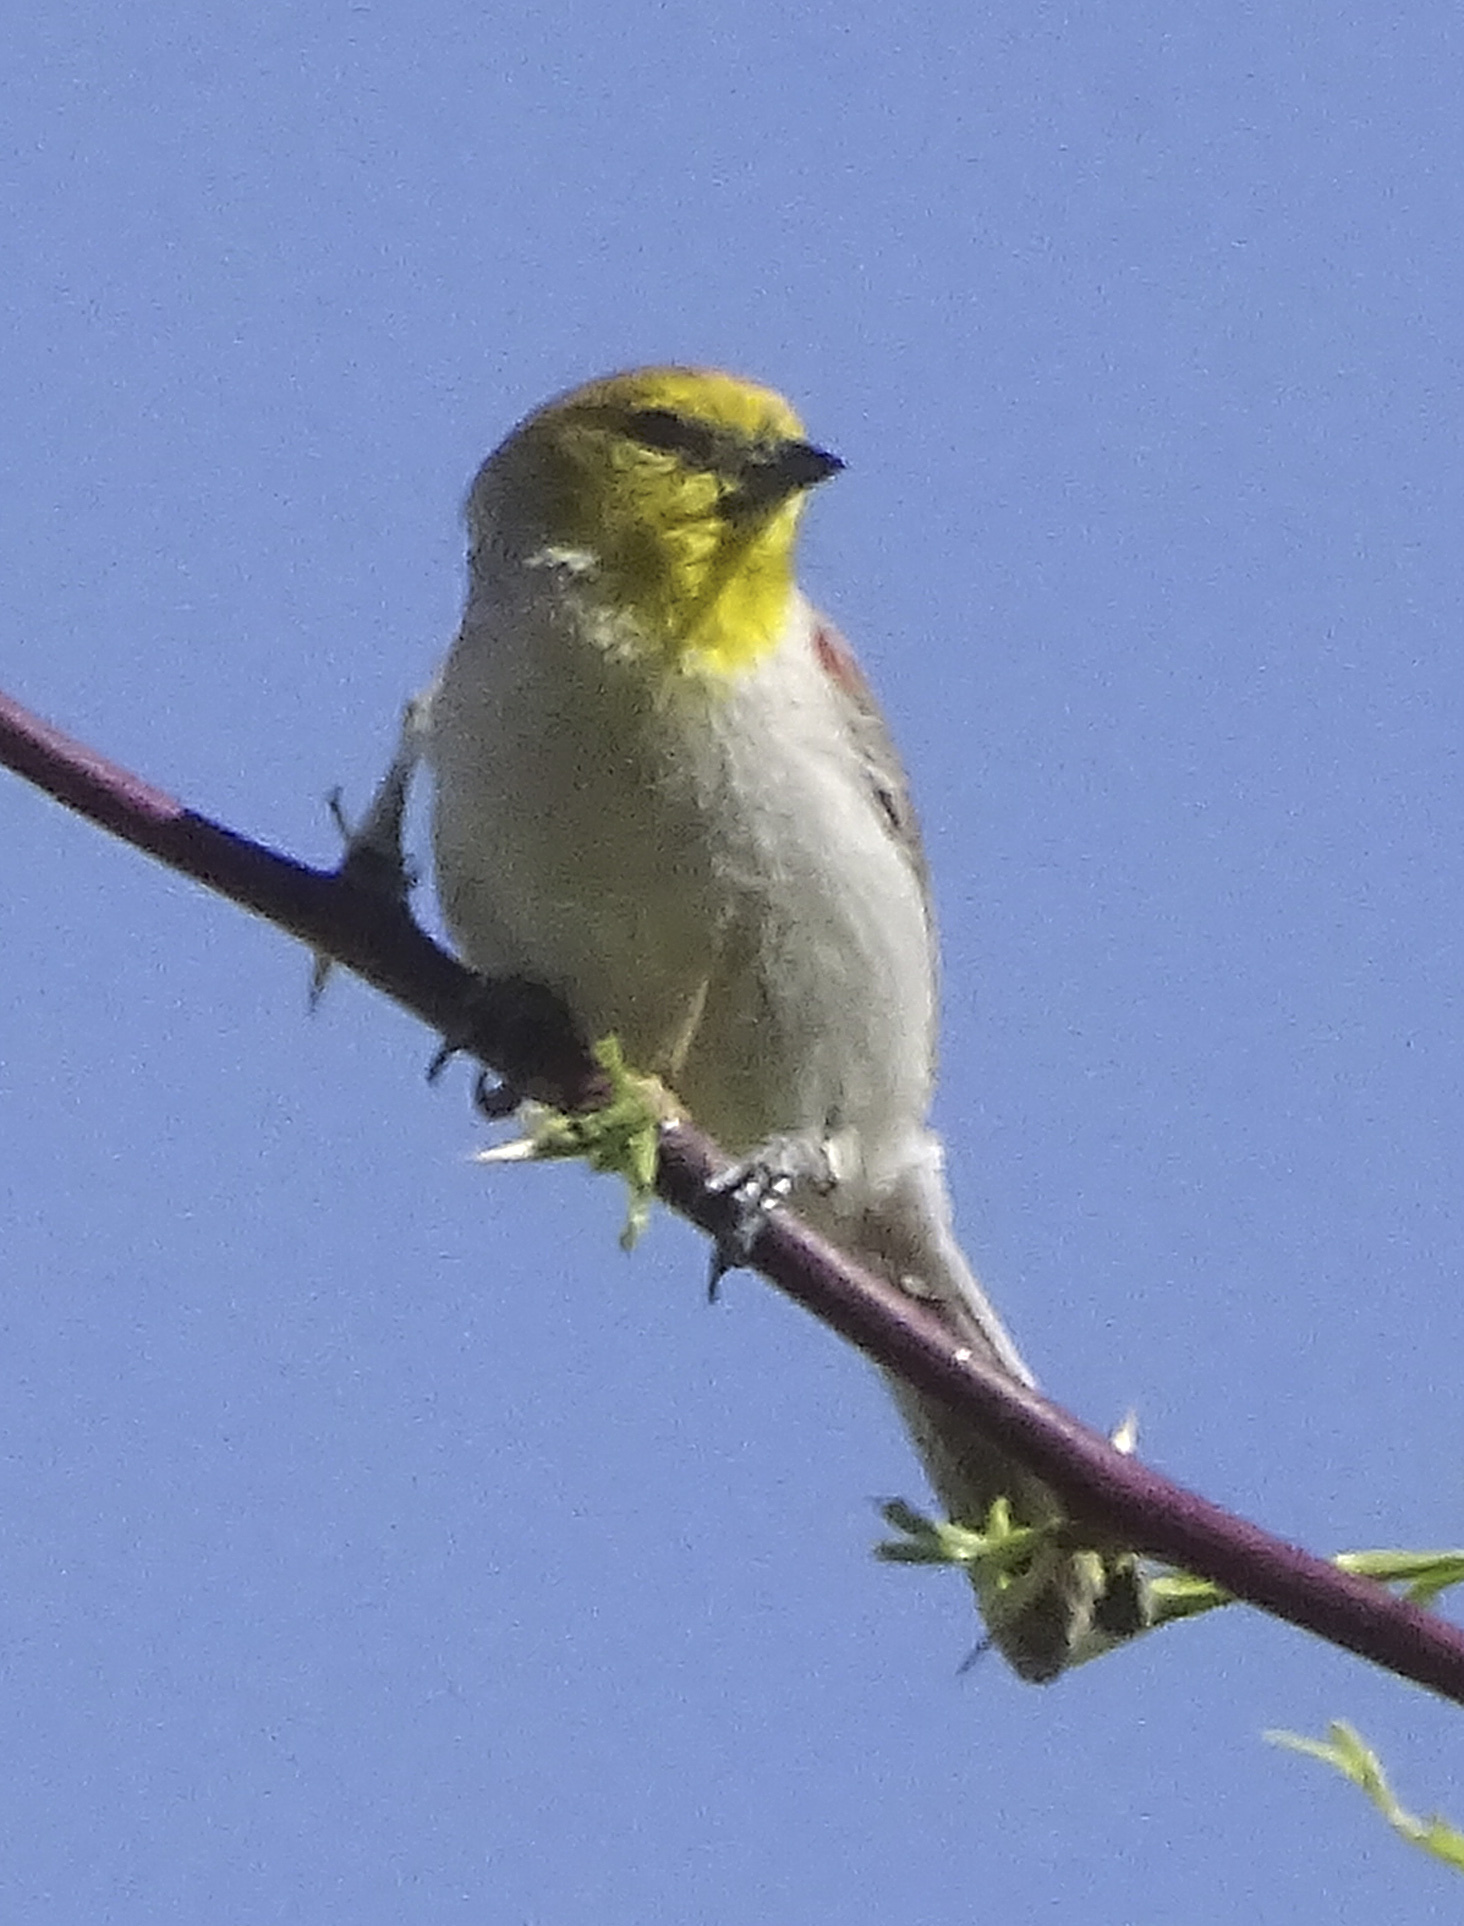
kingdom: Animalia
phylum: Chordata
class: Aves
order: Passeriformes
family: Remizidae
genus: Auriparus
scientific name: Auriparus flaviceps
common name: Verdin
